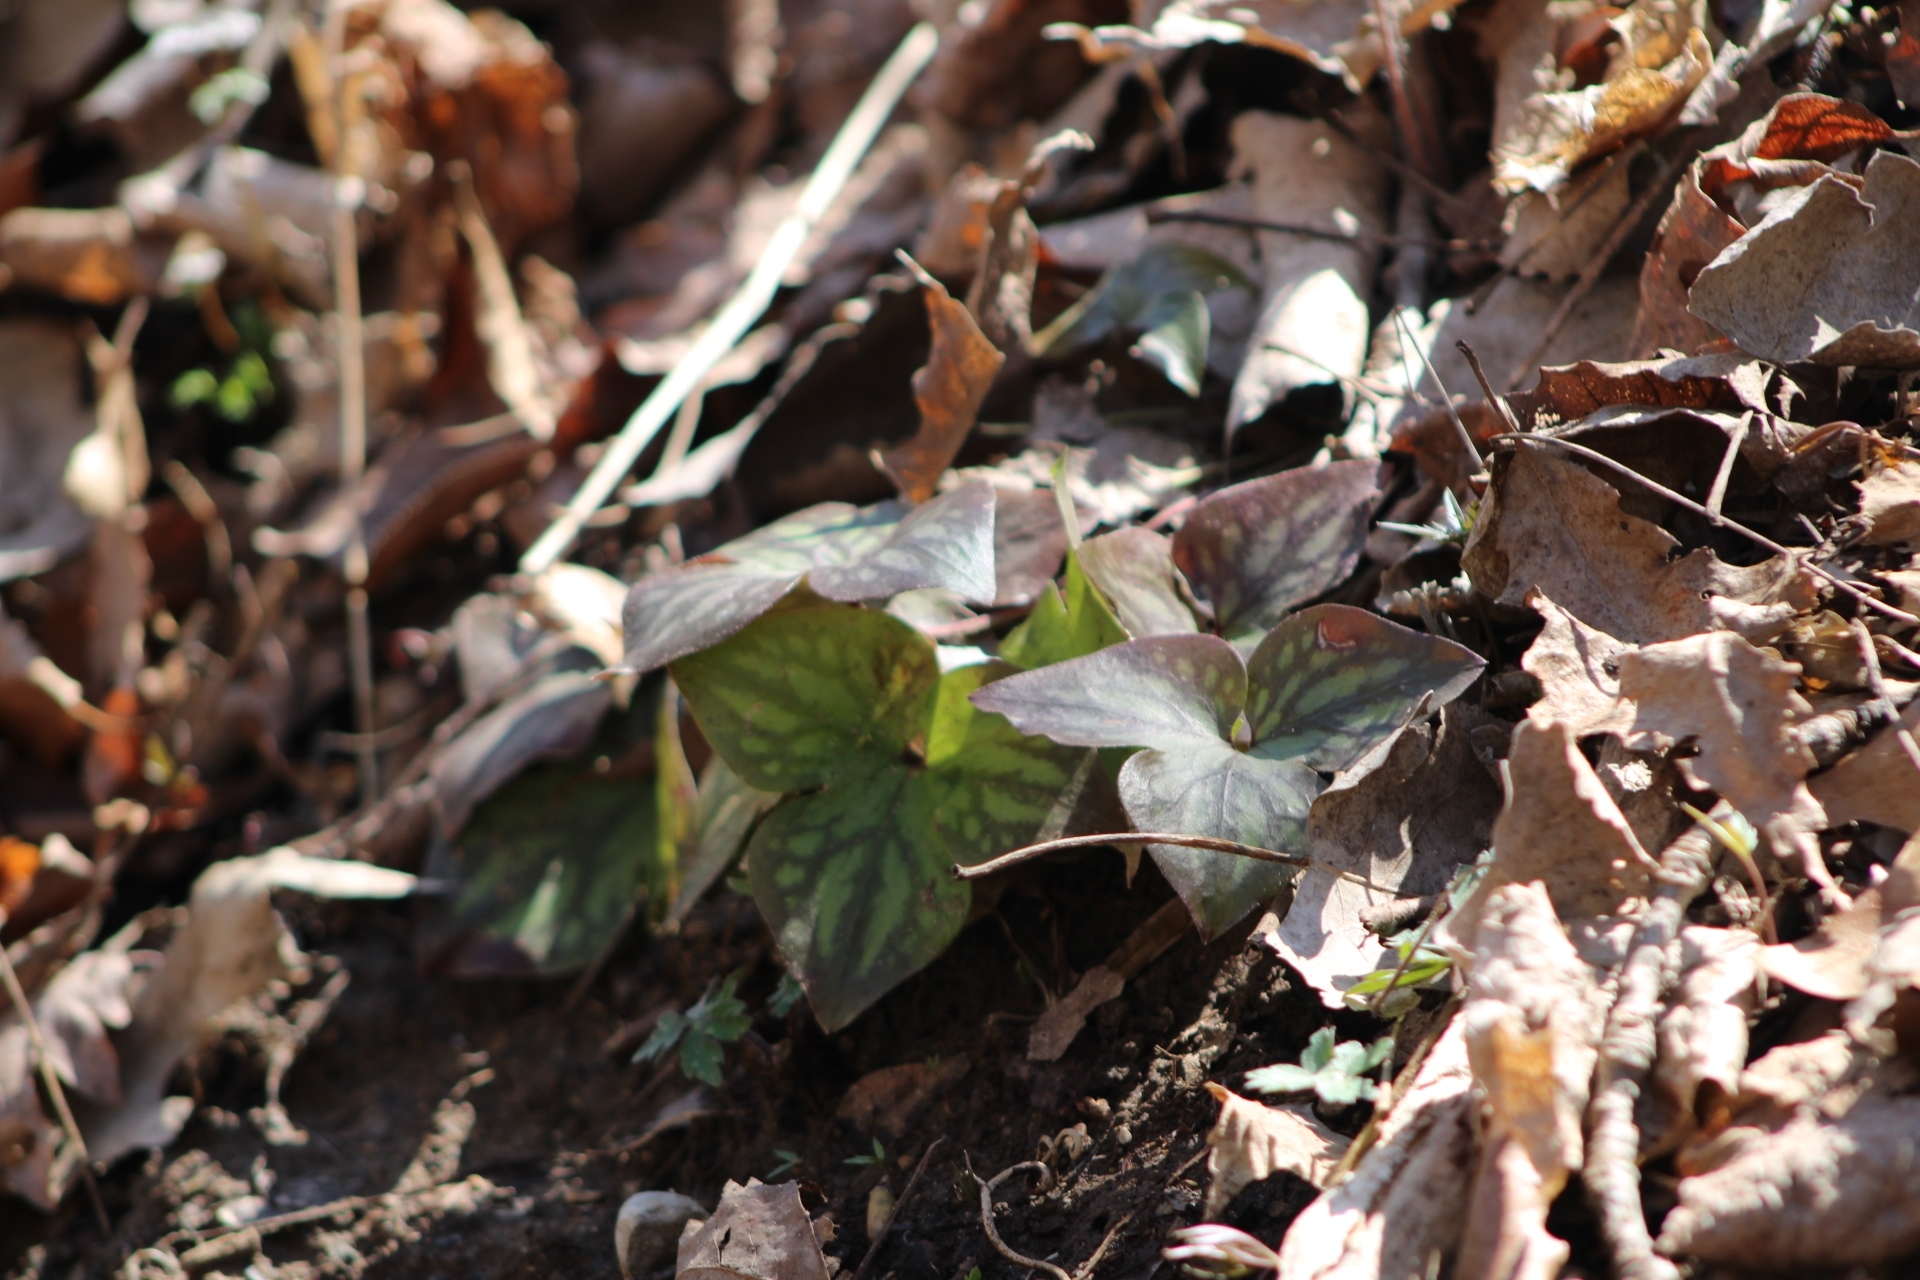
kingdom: Plantae
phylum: Tracheophyta
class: Magnoliopsida
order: Ranunculales
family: Ranunculaceae
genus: Hepatica
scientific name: Hepatica acutiloba
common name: Sharp-lobed hepatica
